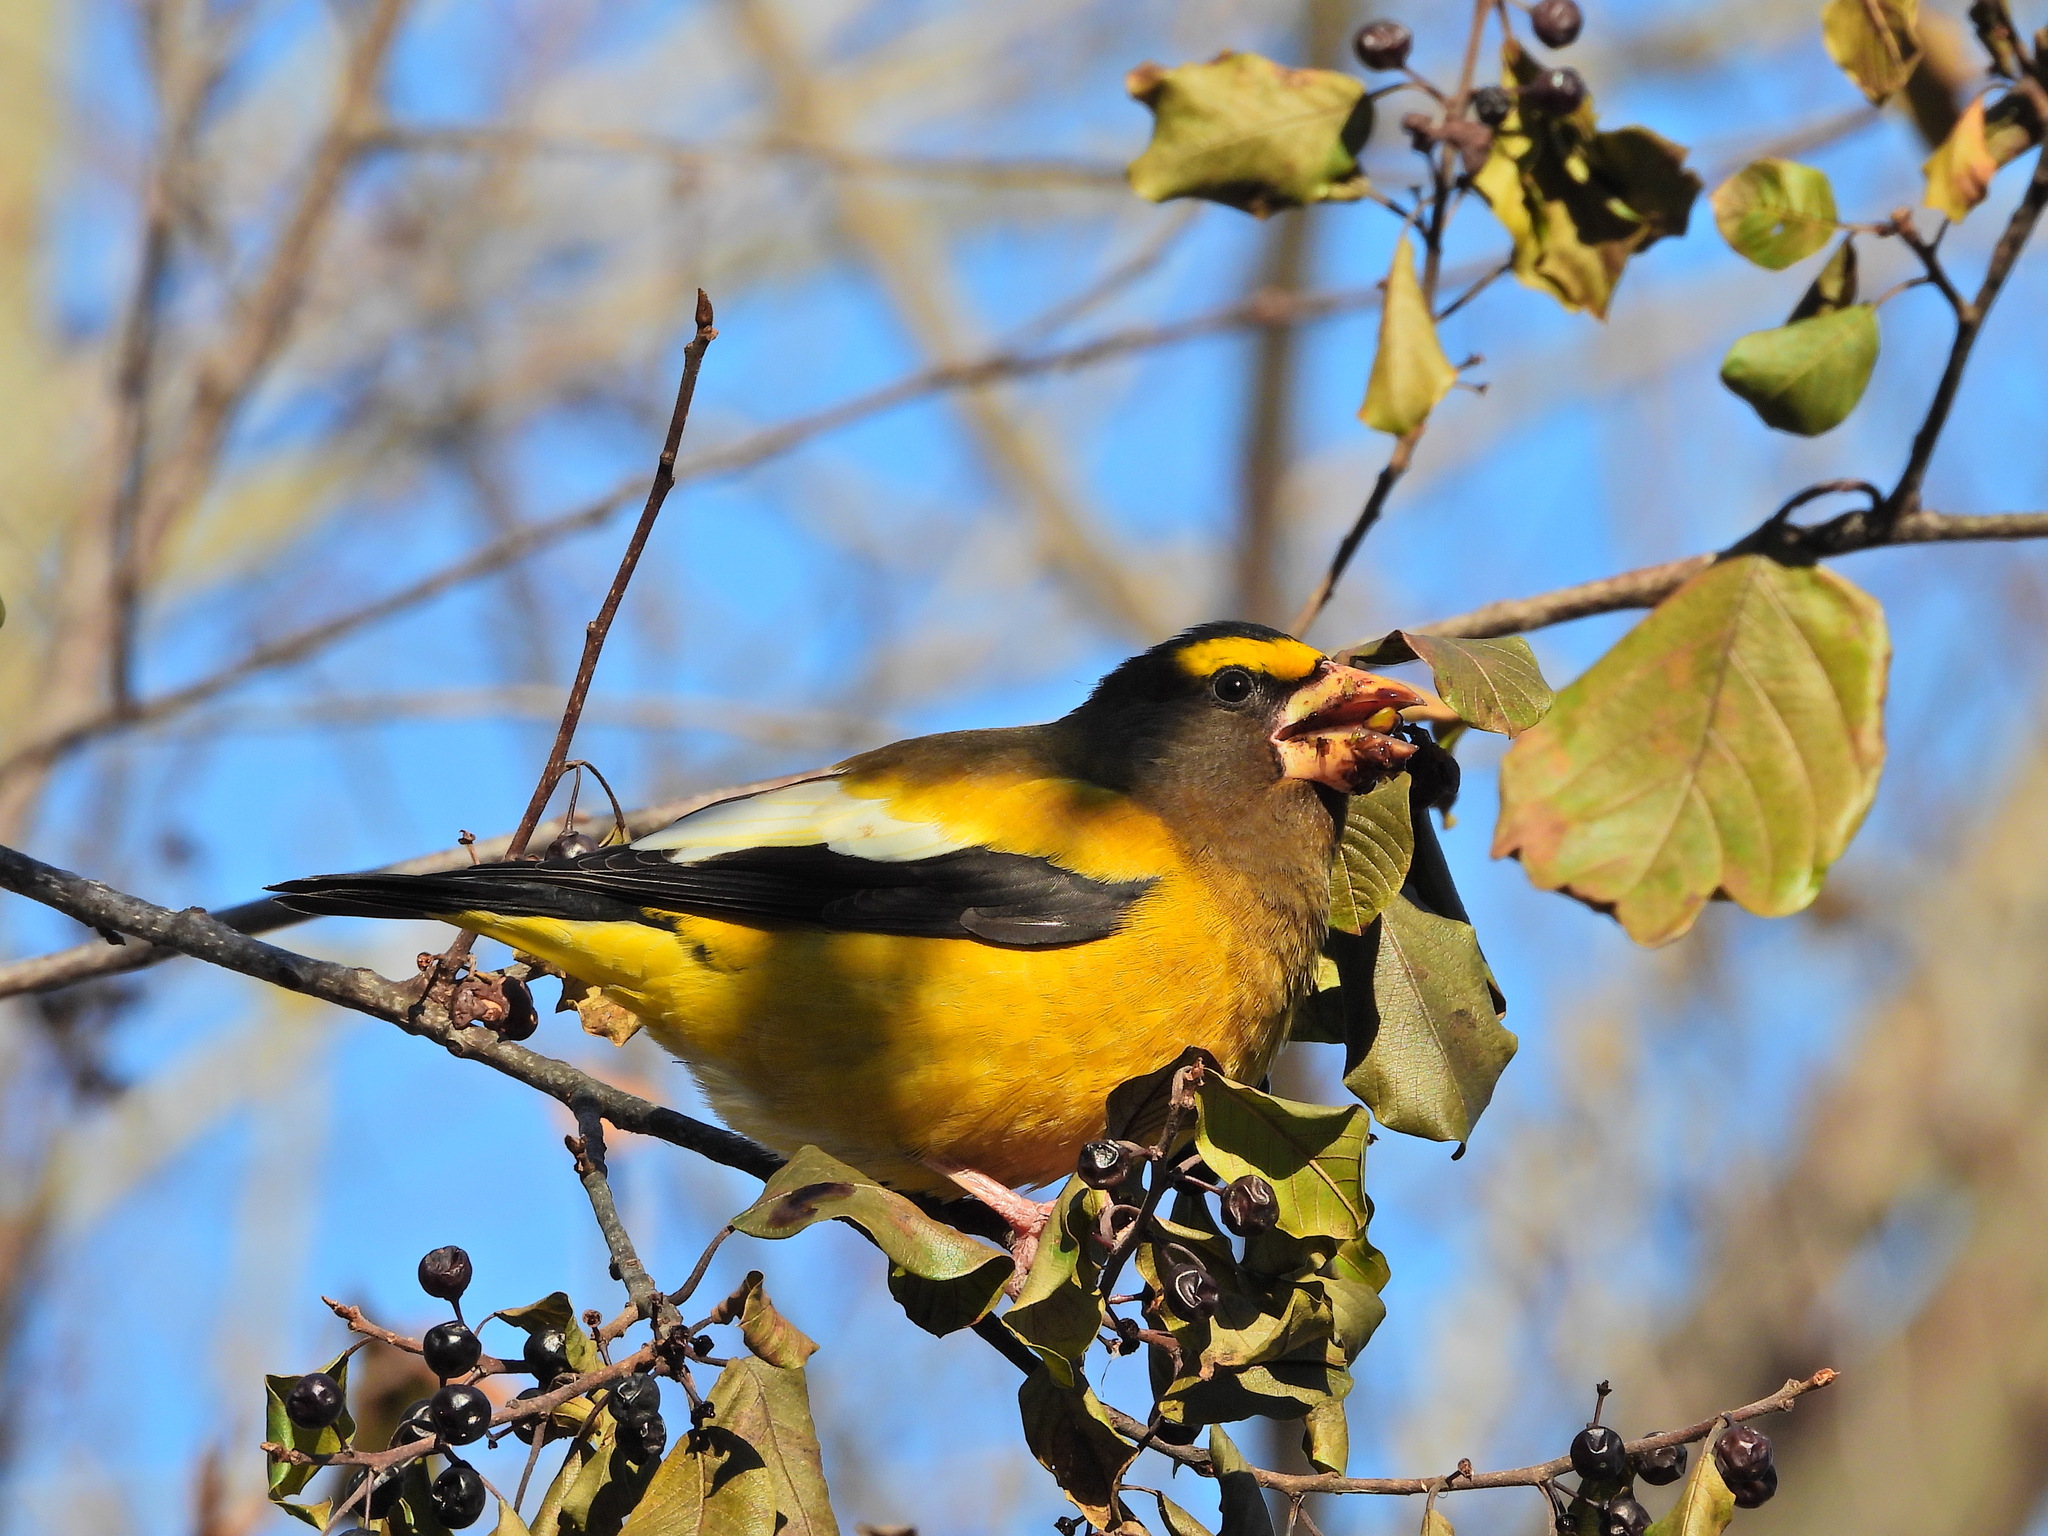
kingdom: Animalia
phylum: Chordata
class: Aves
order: Passeriformes
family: Fringillidae
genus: Hesperiphona
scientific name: Hesperiphona vespertina
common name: Evening grosbeak
